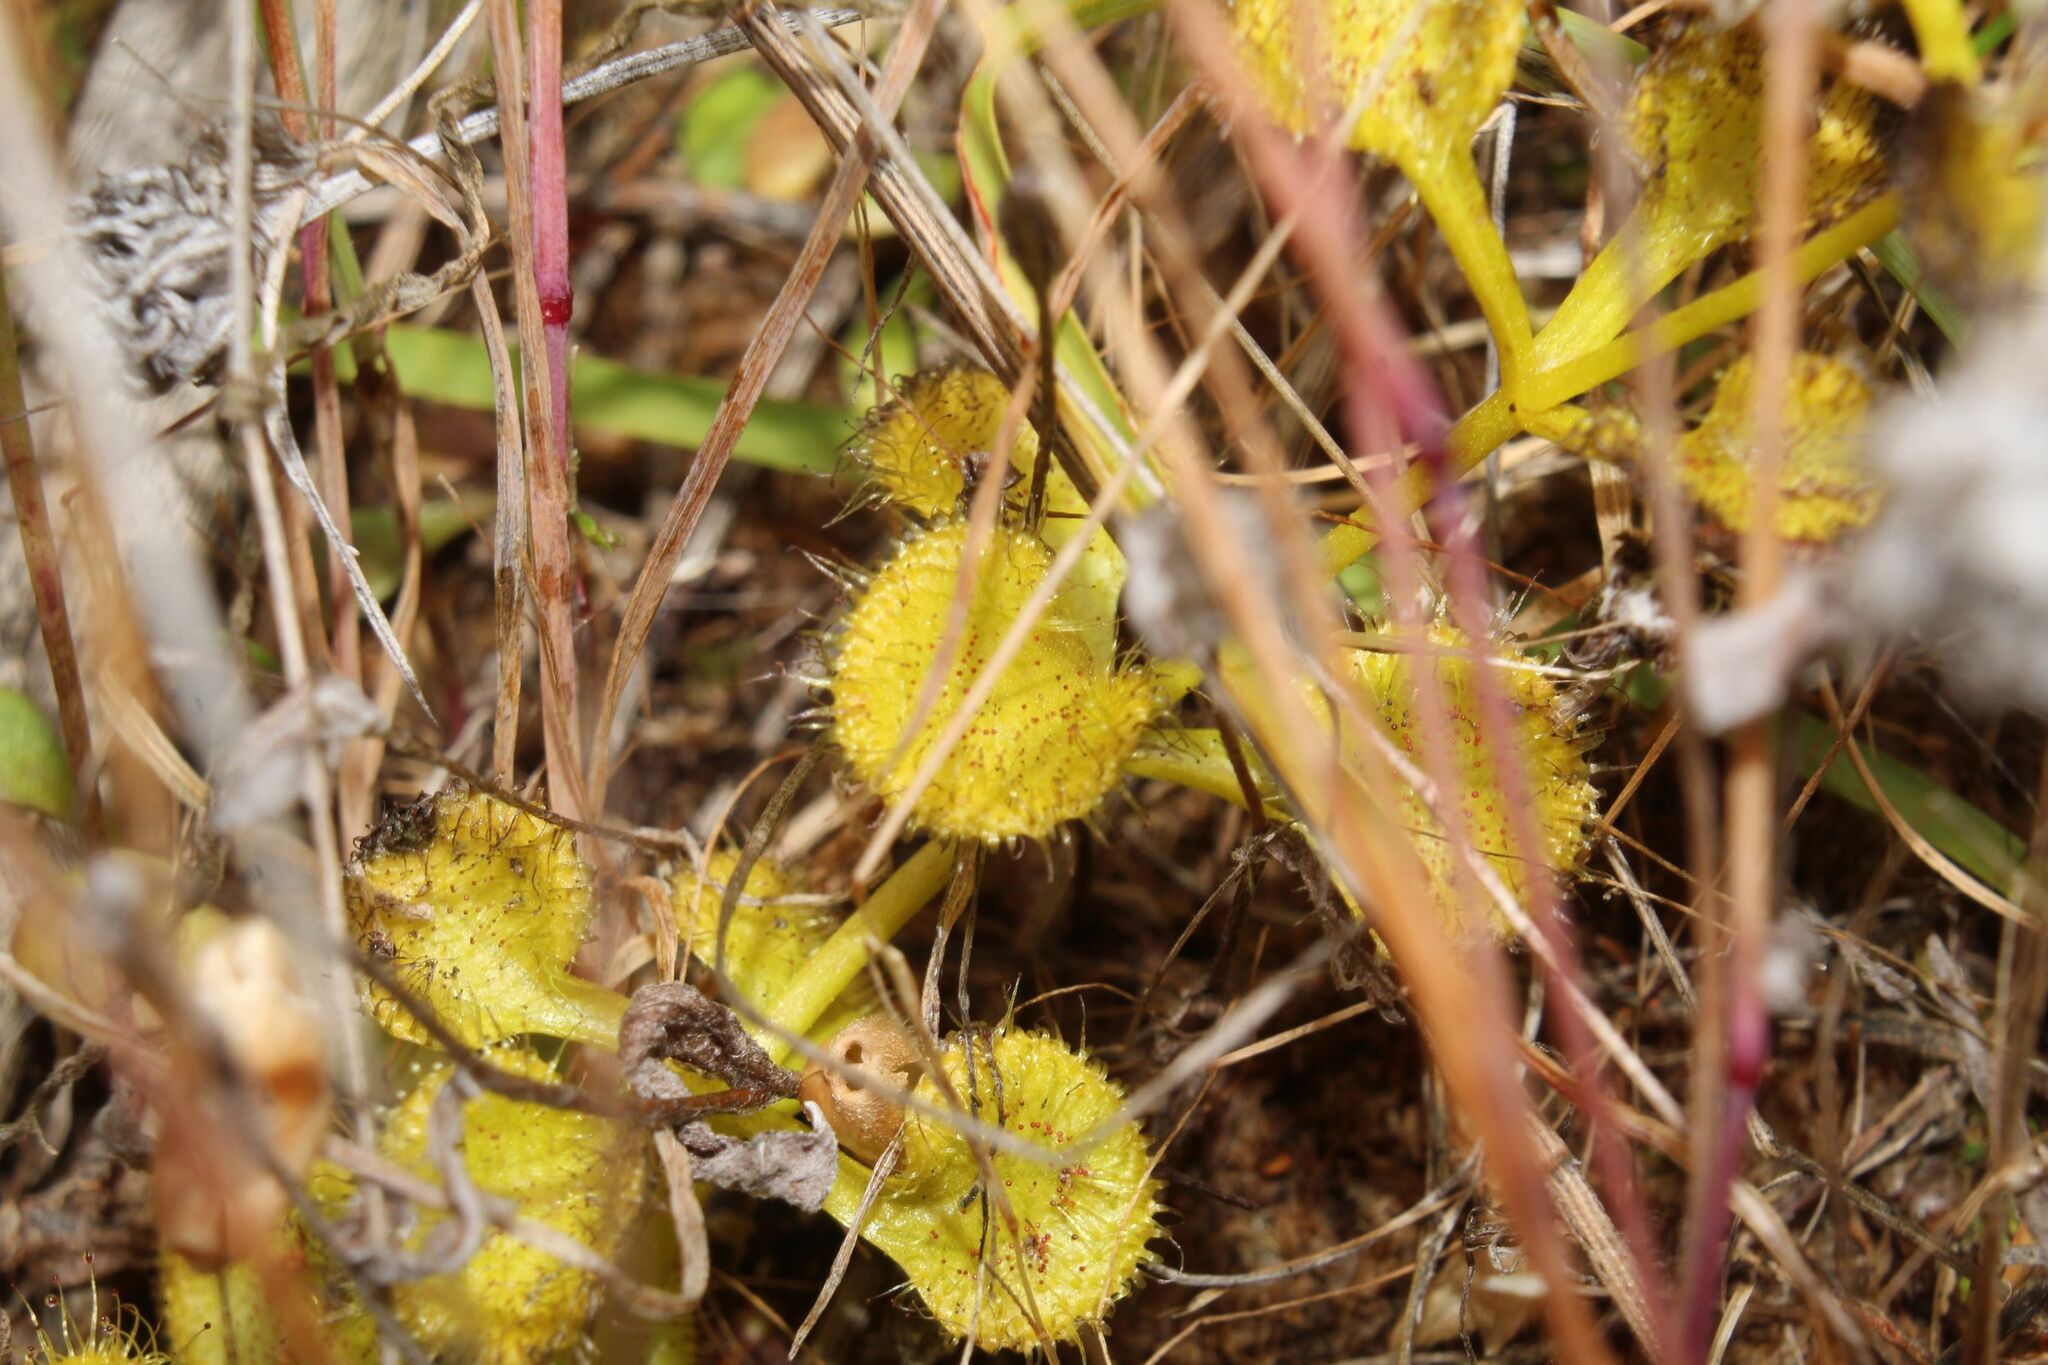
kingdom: Plantae
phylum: Tracheophyta
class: Magnoliopsida
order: Caryophyllales
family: Droseraceae
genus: Drosera
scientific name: Drosera rupicola
